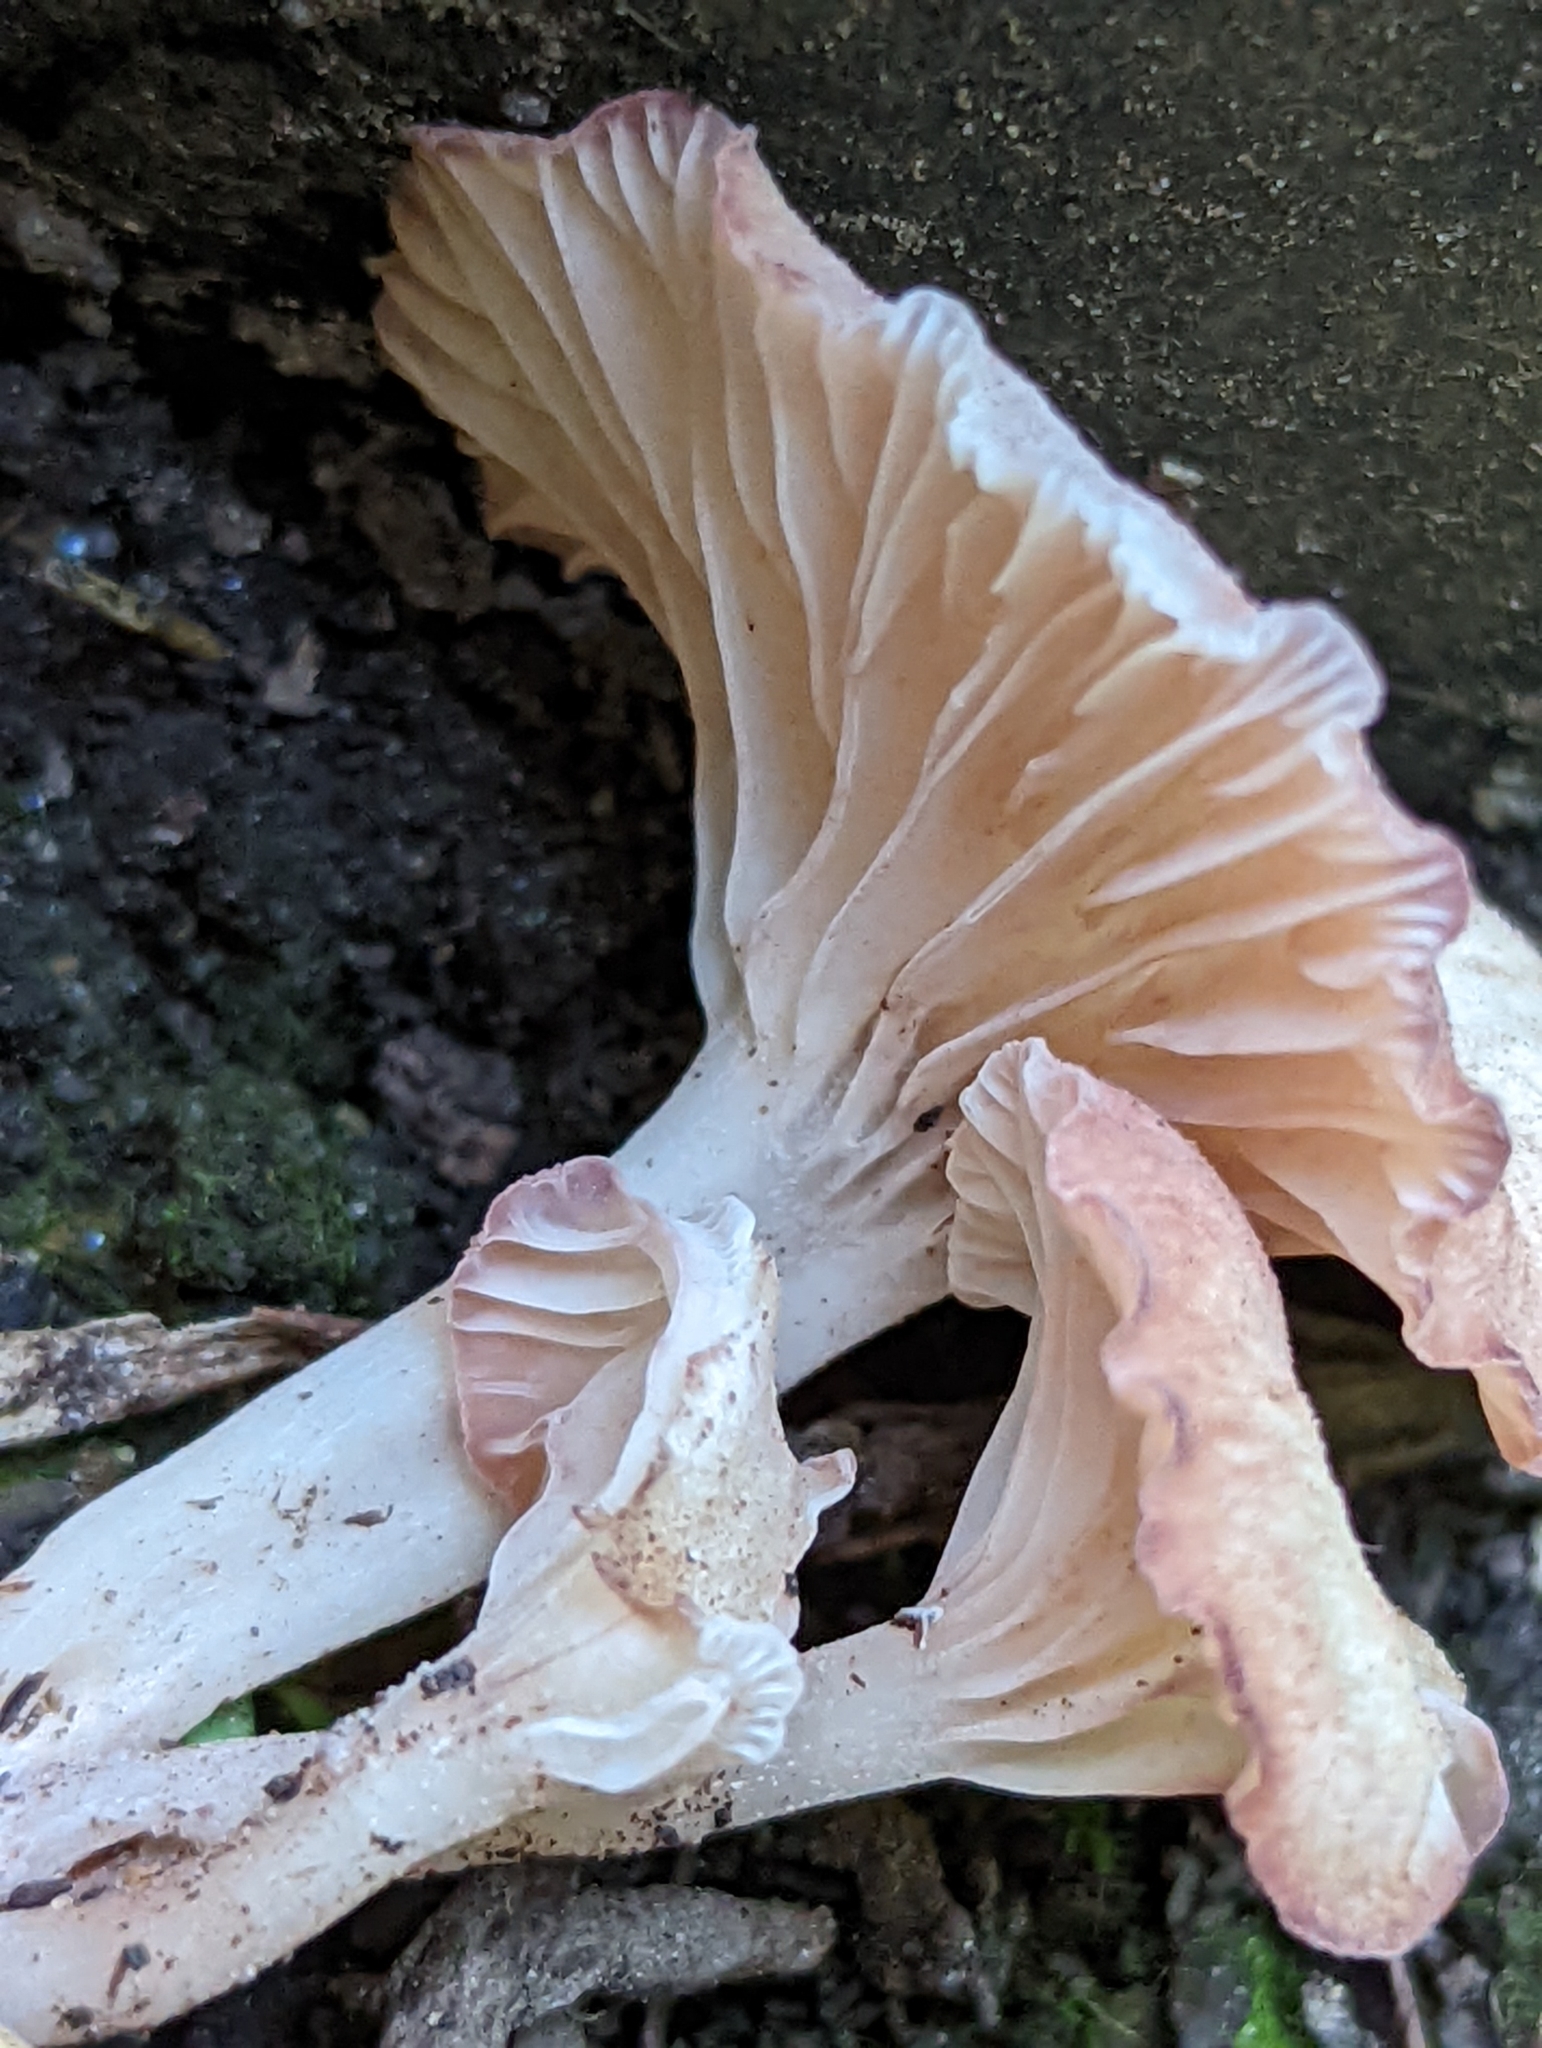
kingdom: Fungi
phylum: Basidiomycota
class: Agaricomycetes
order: Hymenochaetales
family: Rickenellaceae
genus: Contumyces
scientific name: Contumyces rosellus
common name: Rosy navel
